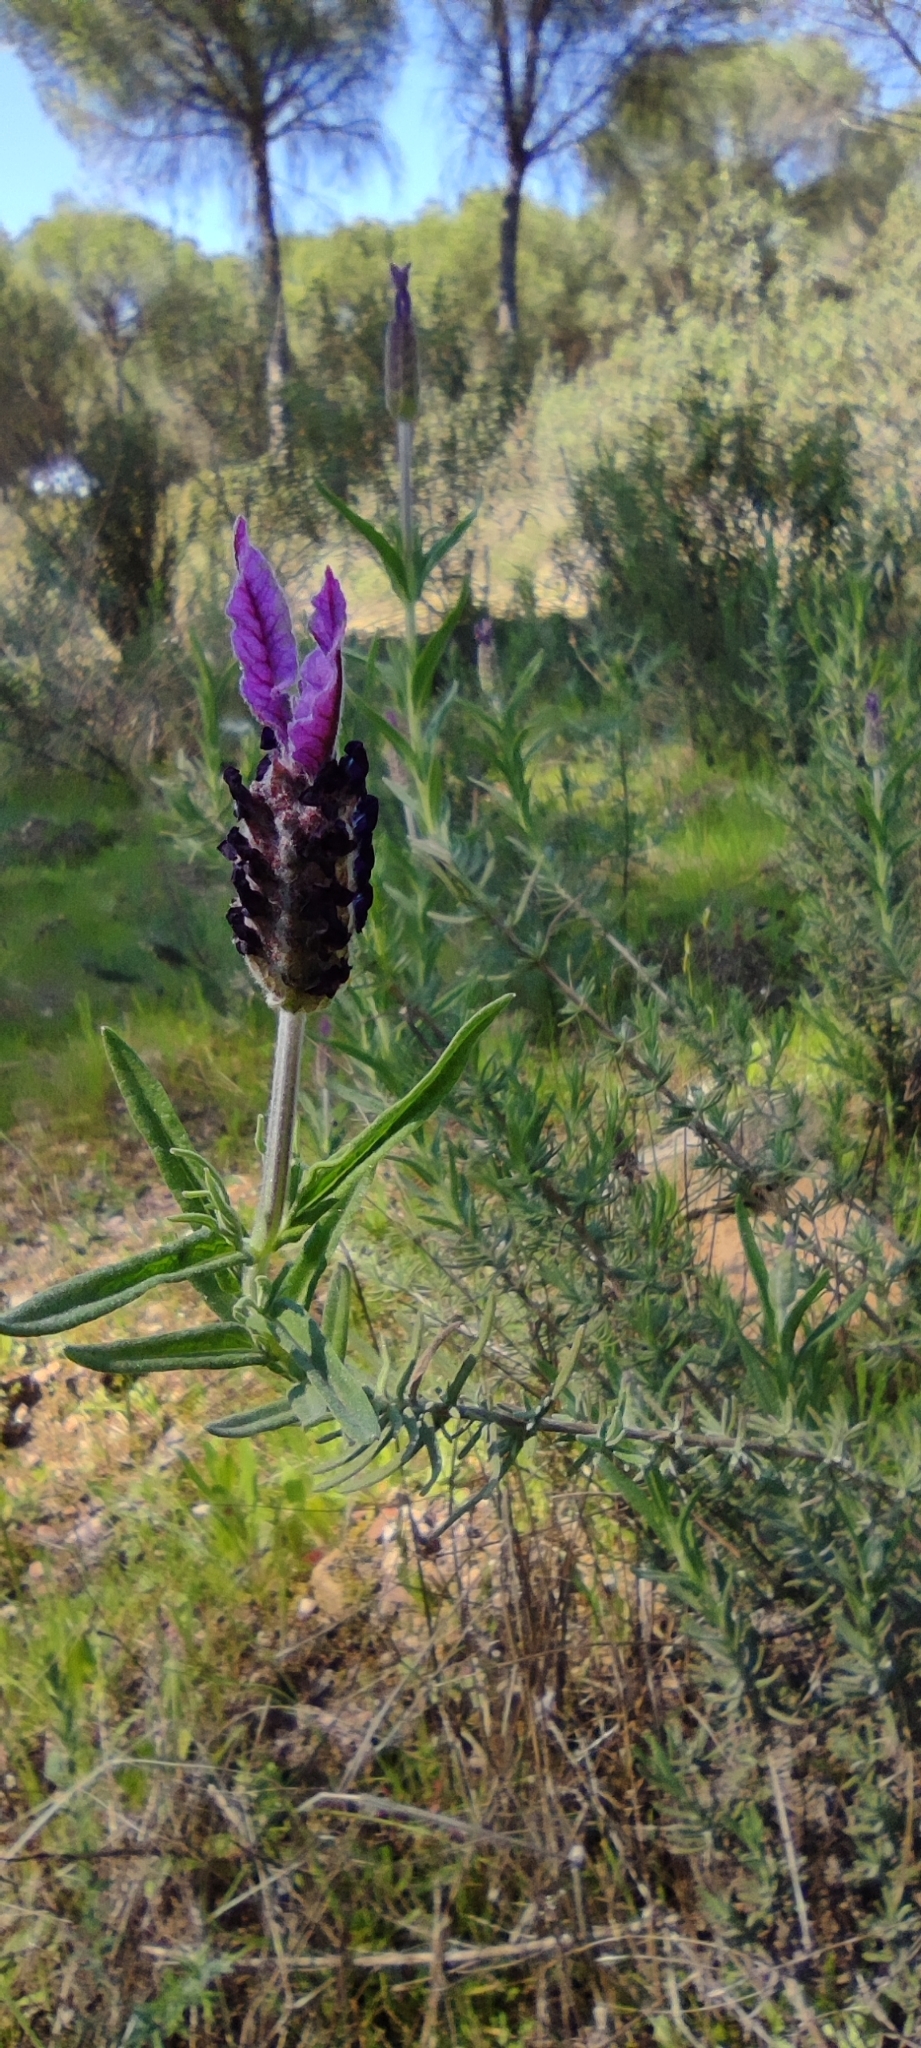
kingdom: Plantae
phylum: Tracheophyta
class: Magnoliopsida
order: Lamiales
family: Lamiaceae
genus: Lavandula
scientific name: Lavandula pedunculata
